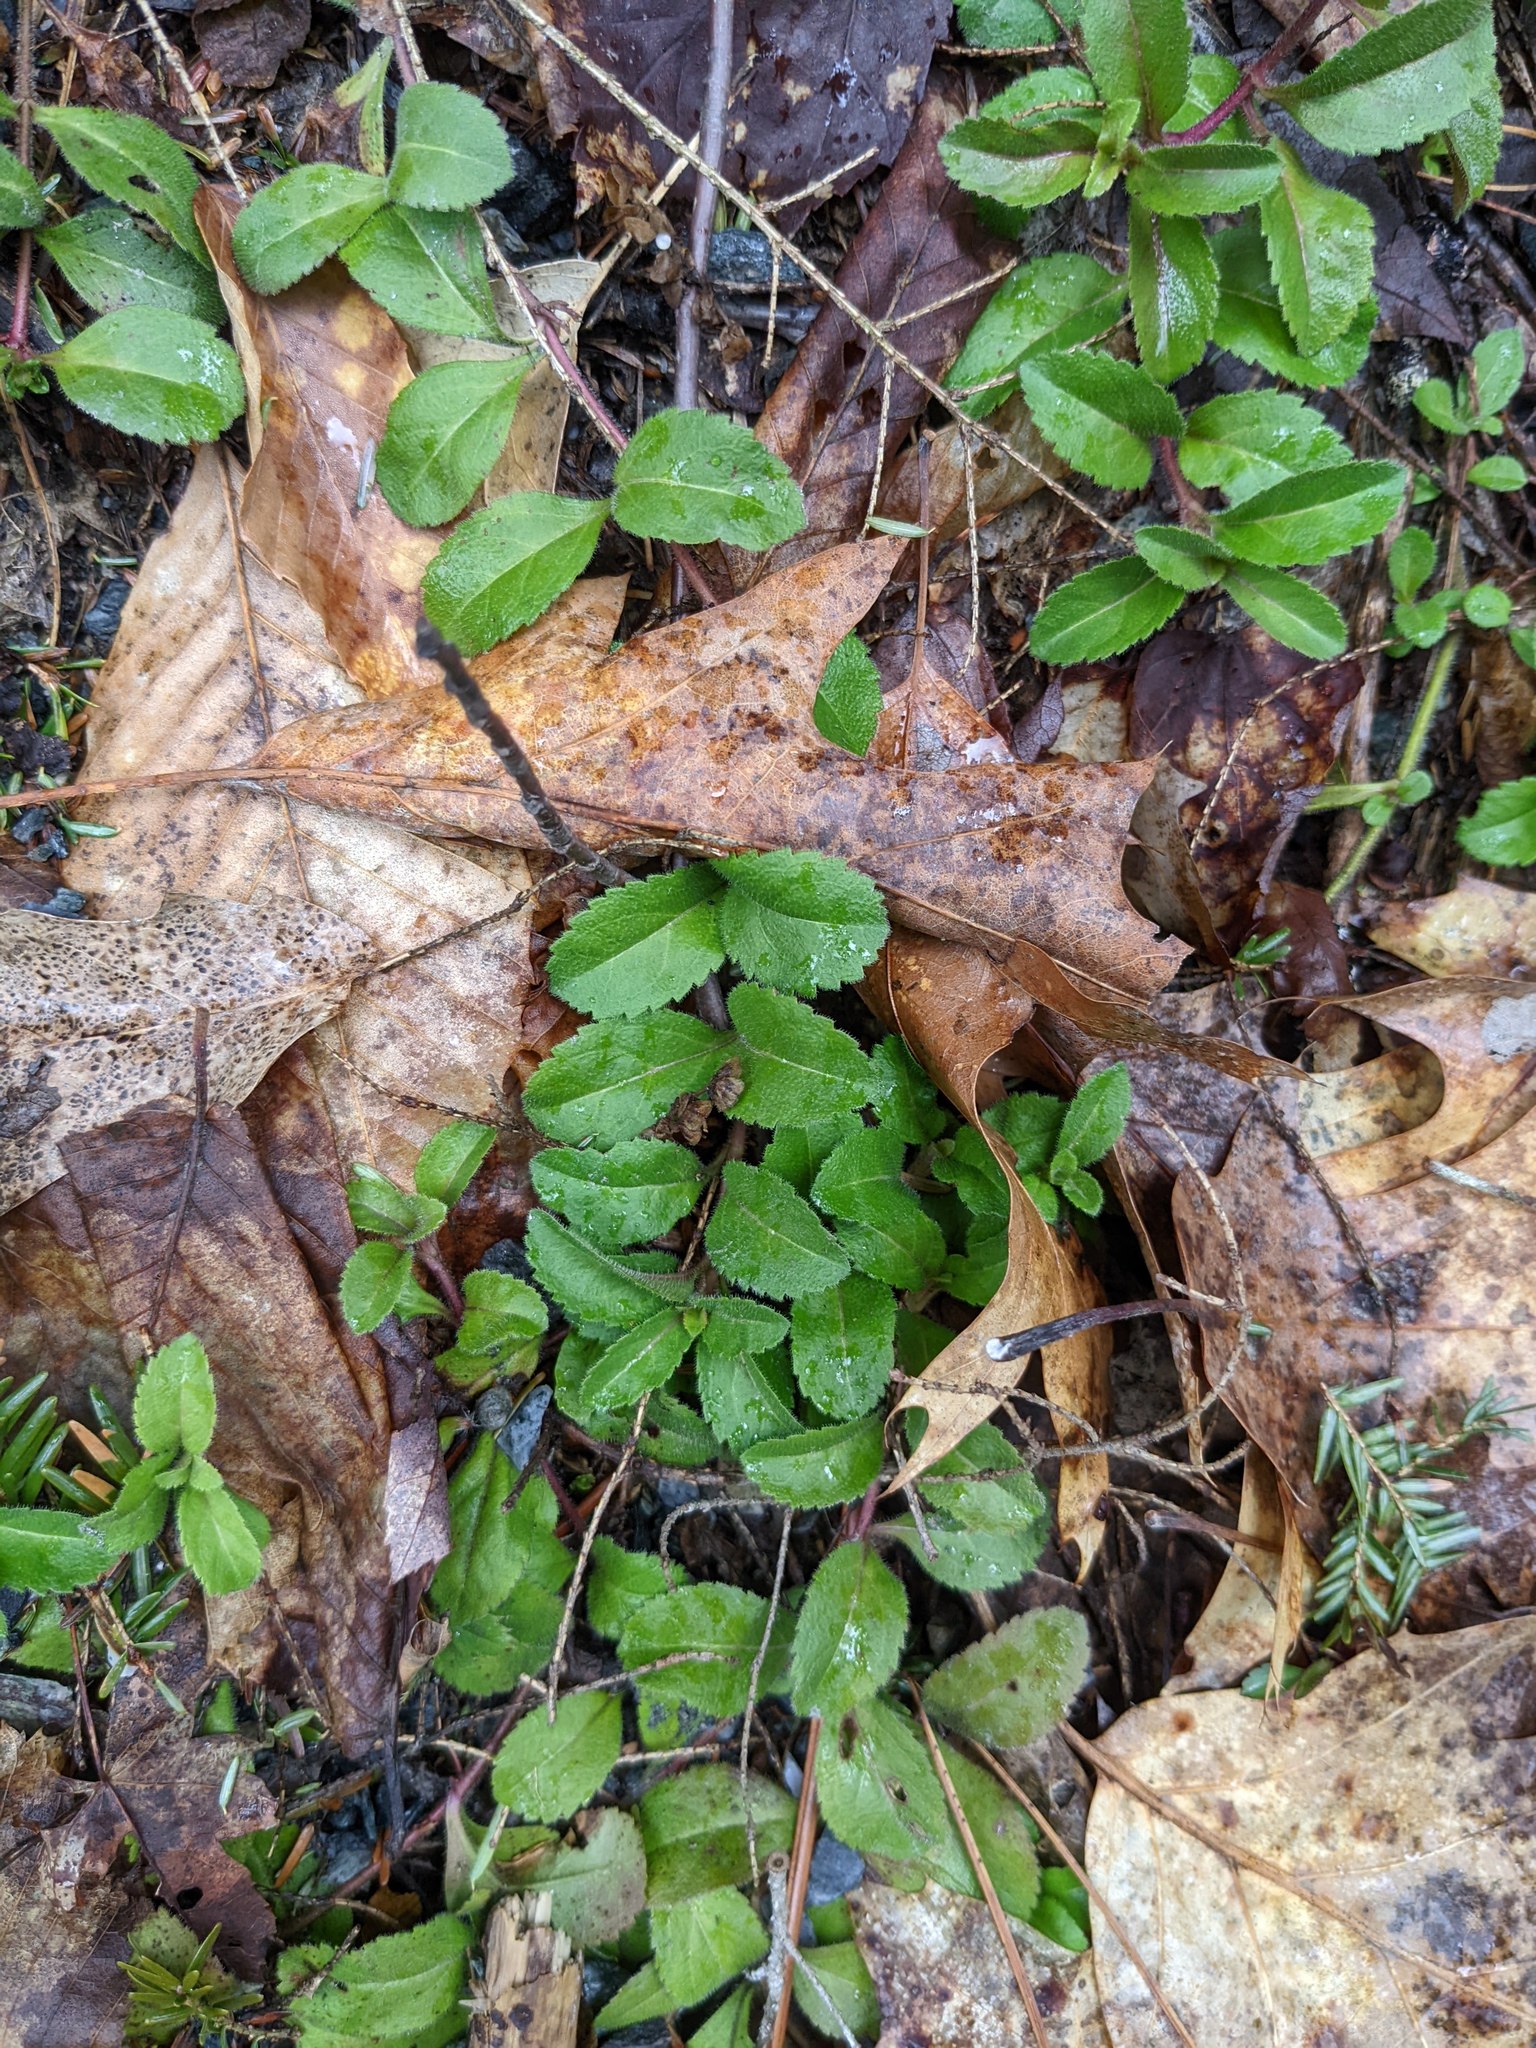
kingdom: Plantae
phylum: Tracheophyta
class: Magnoliopsida
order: Lamiales
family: Plantaginaceae
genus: Veronica
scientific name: Veronica officinalis
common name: Common speedwell
